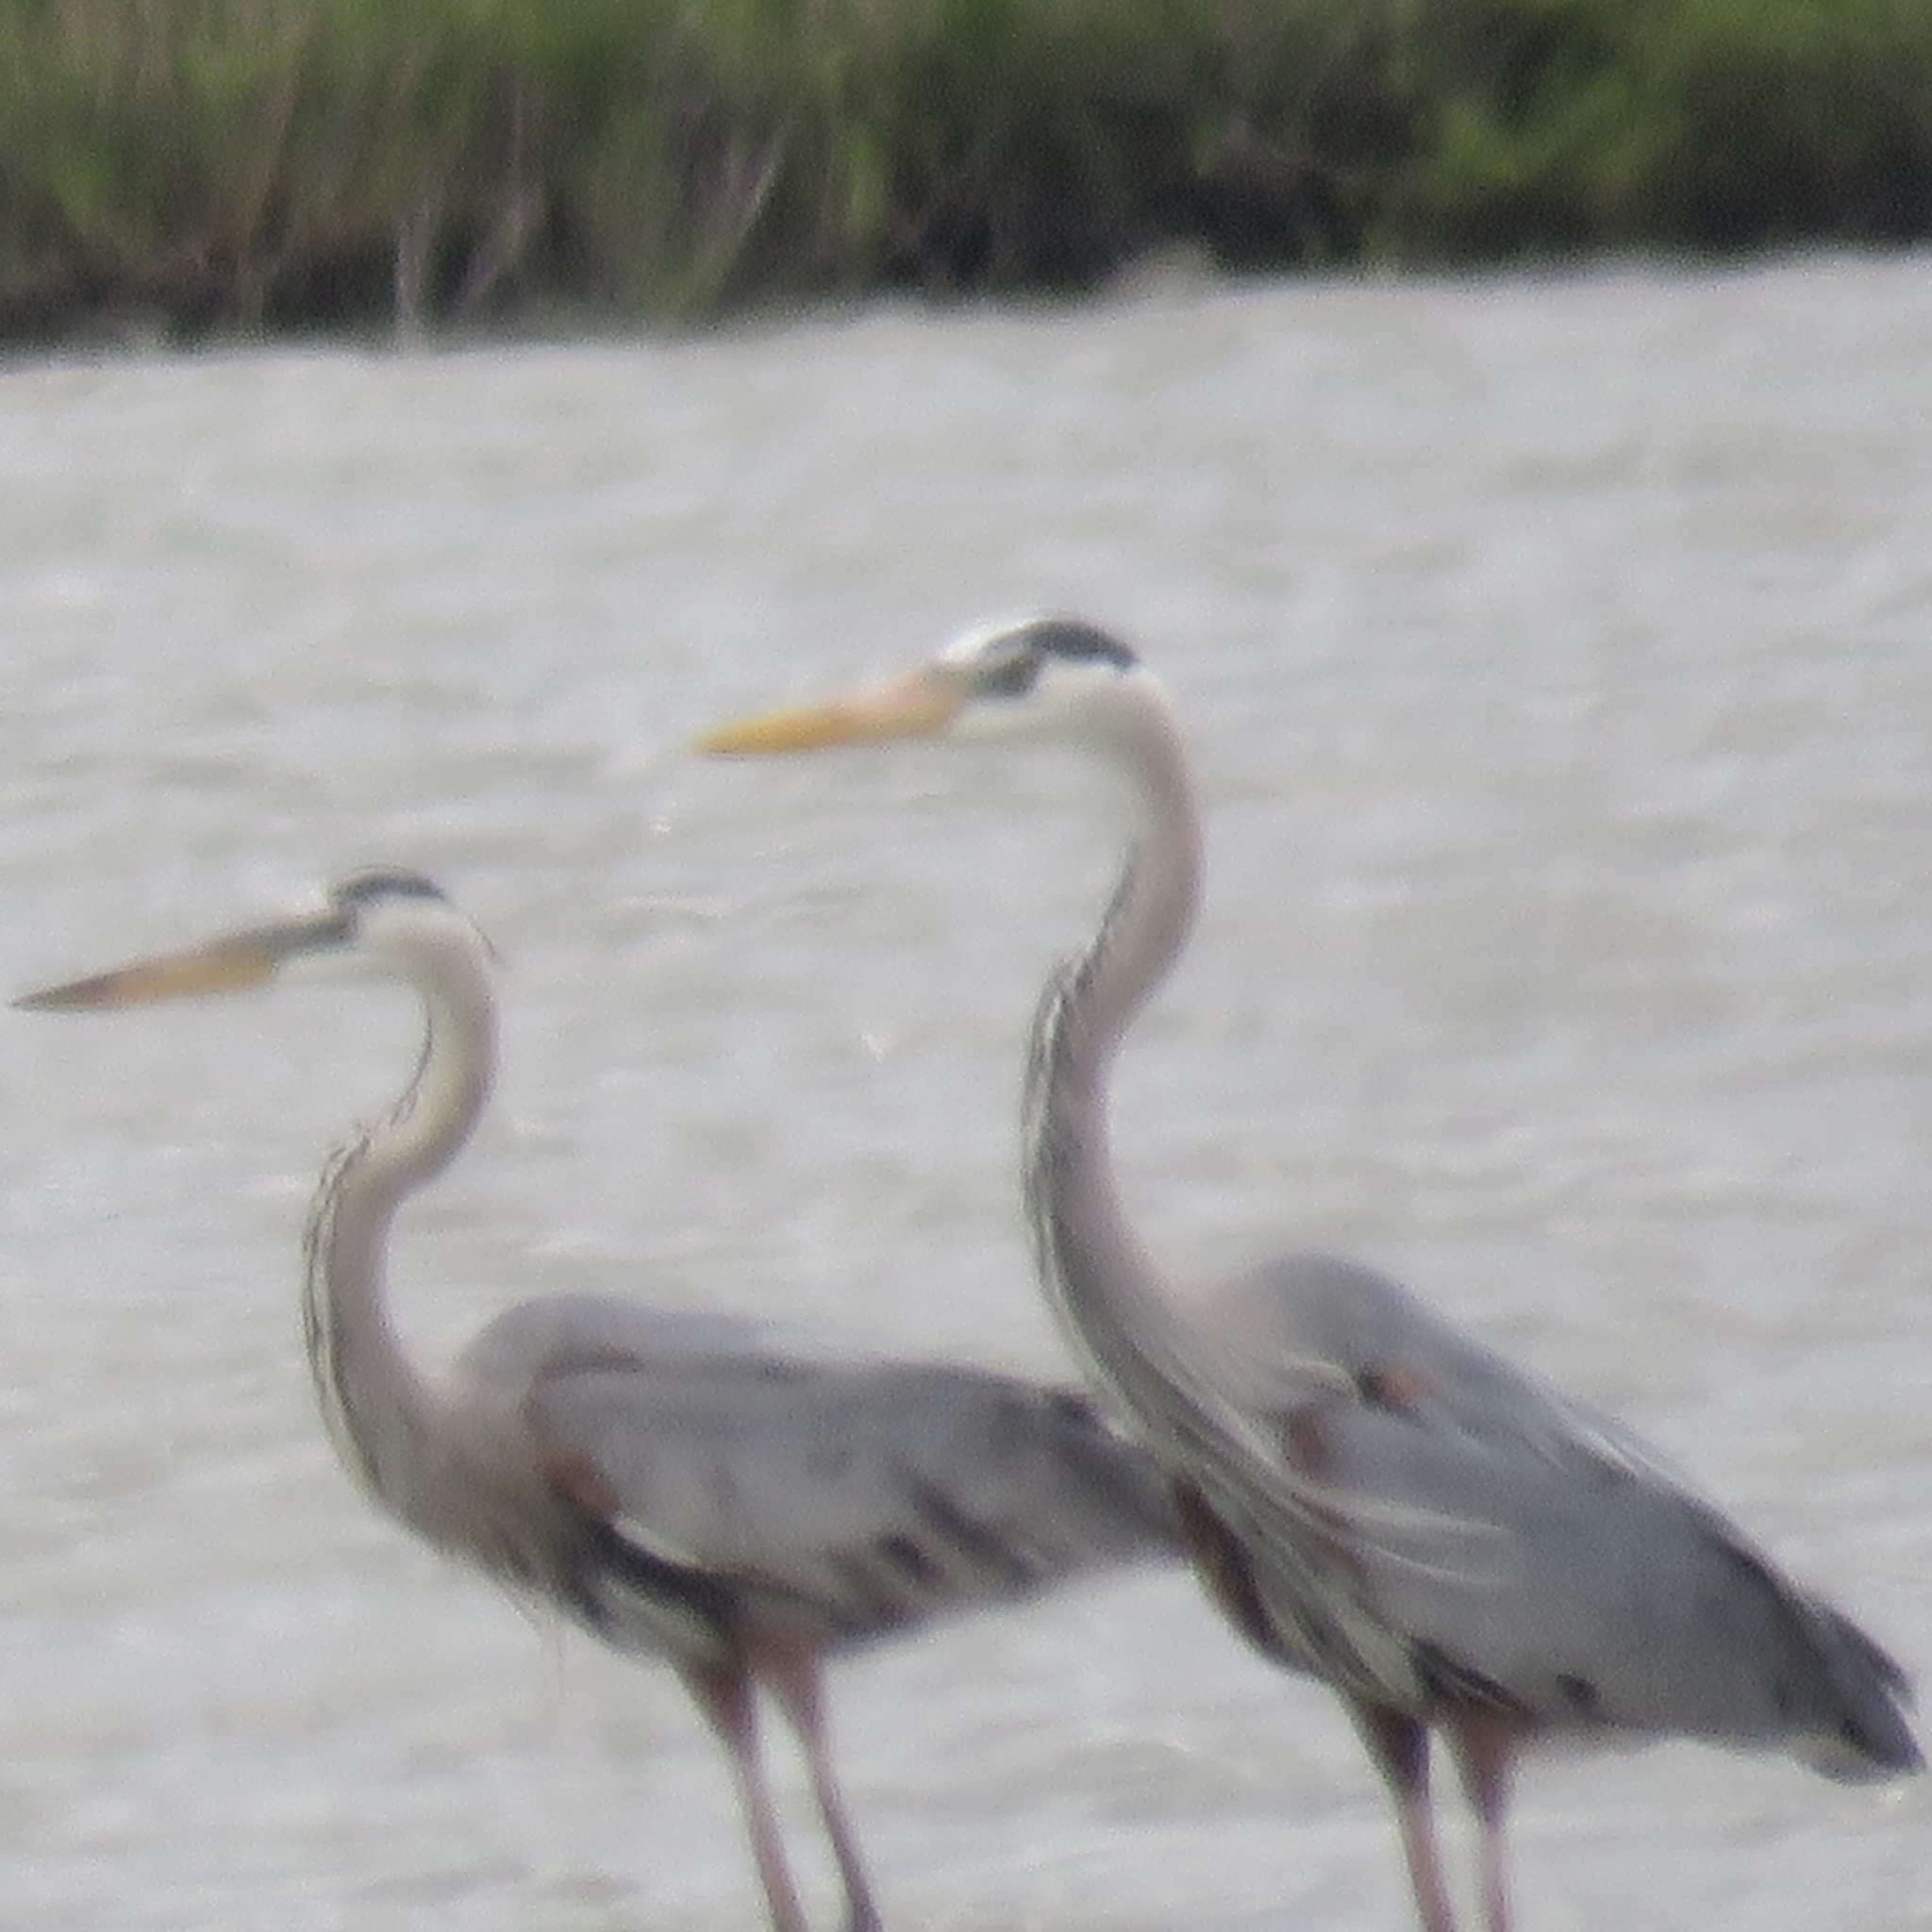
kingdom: Animalia
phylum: Chordata
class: Aves
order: Pelecaniformes
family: Ardeidae
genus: Ardea
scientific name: Ardea herodias
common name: Great blue heron
